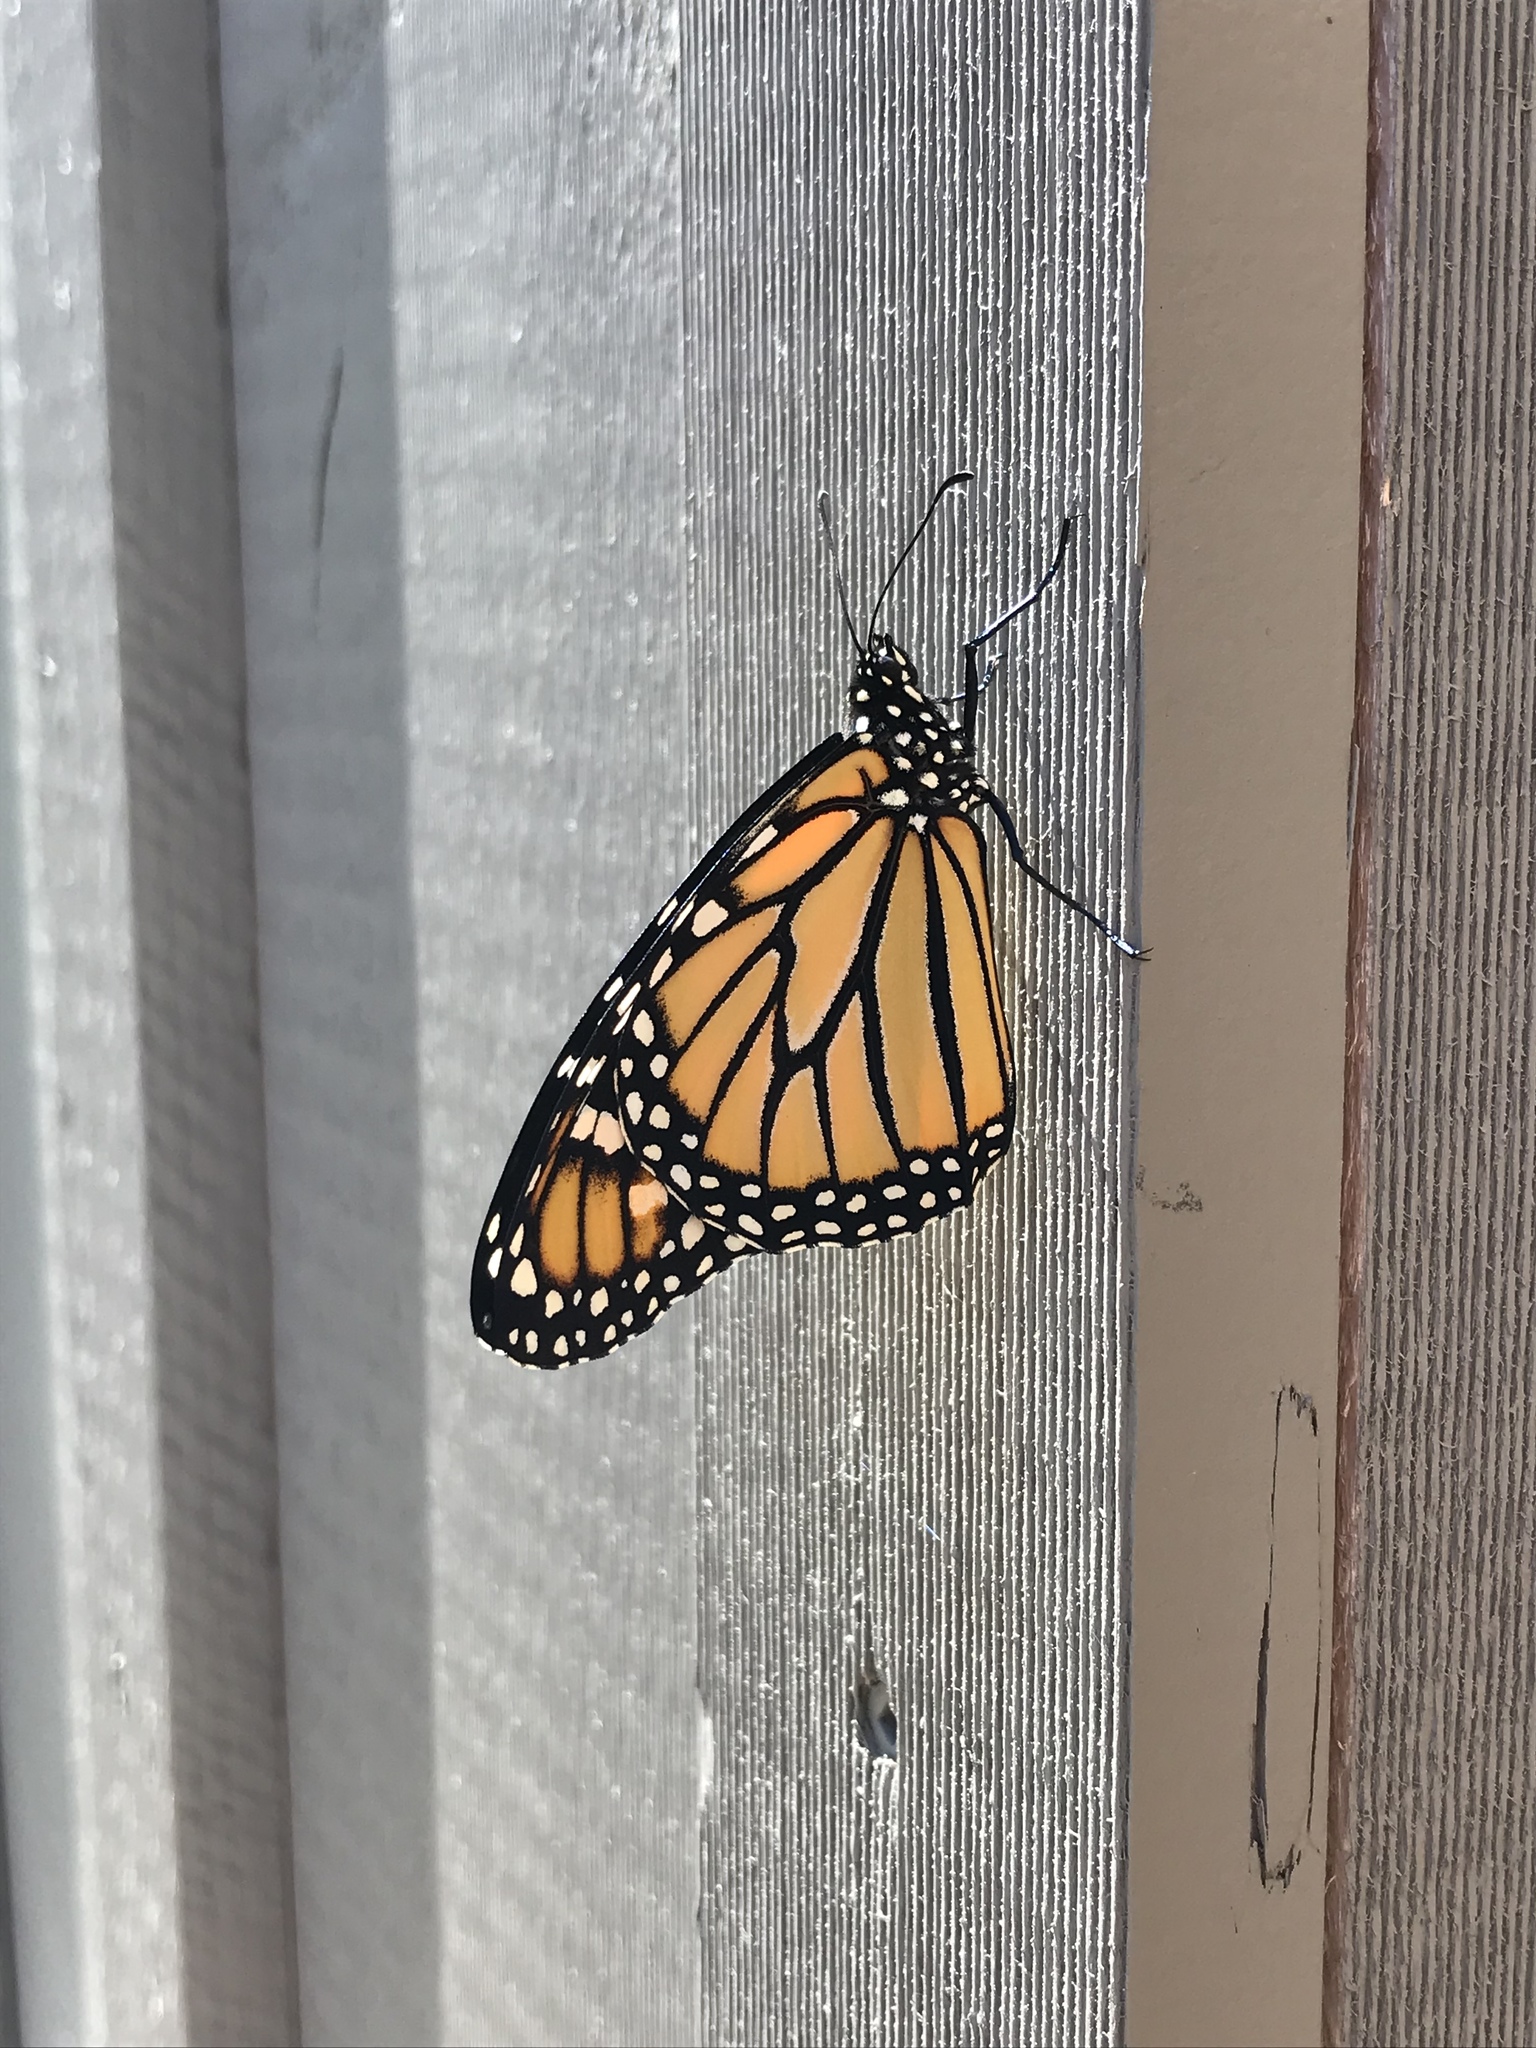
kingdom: Animalia
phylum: Arthropoda
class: Insecta
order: Lepidoptera
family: Nymphalidae
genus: Danaus
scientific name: Danaus plexippus
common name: Monarch
